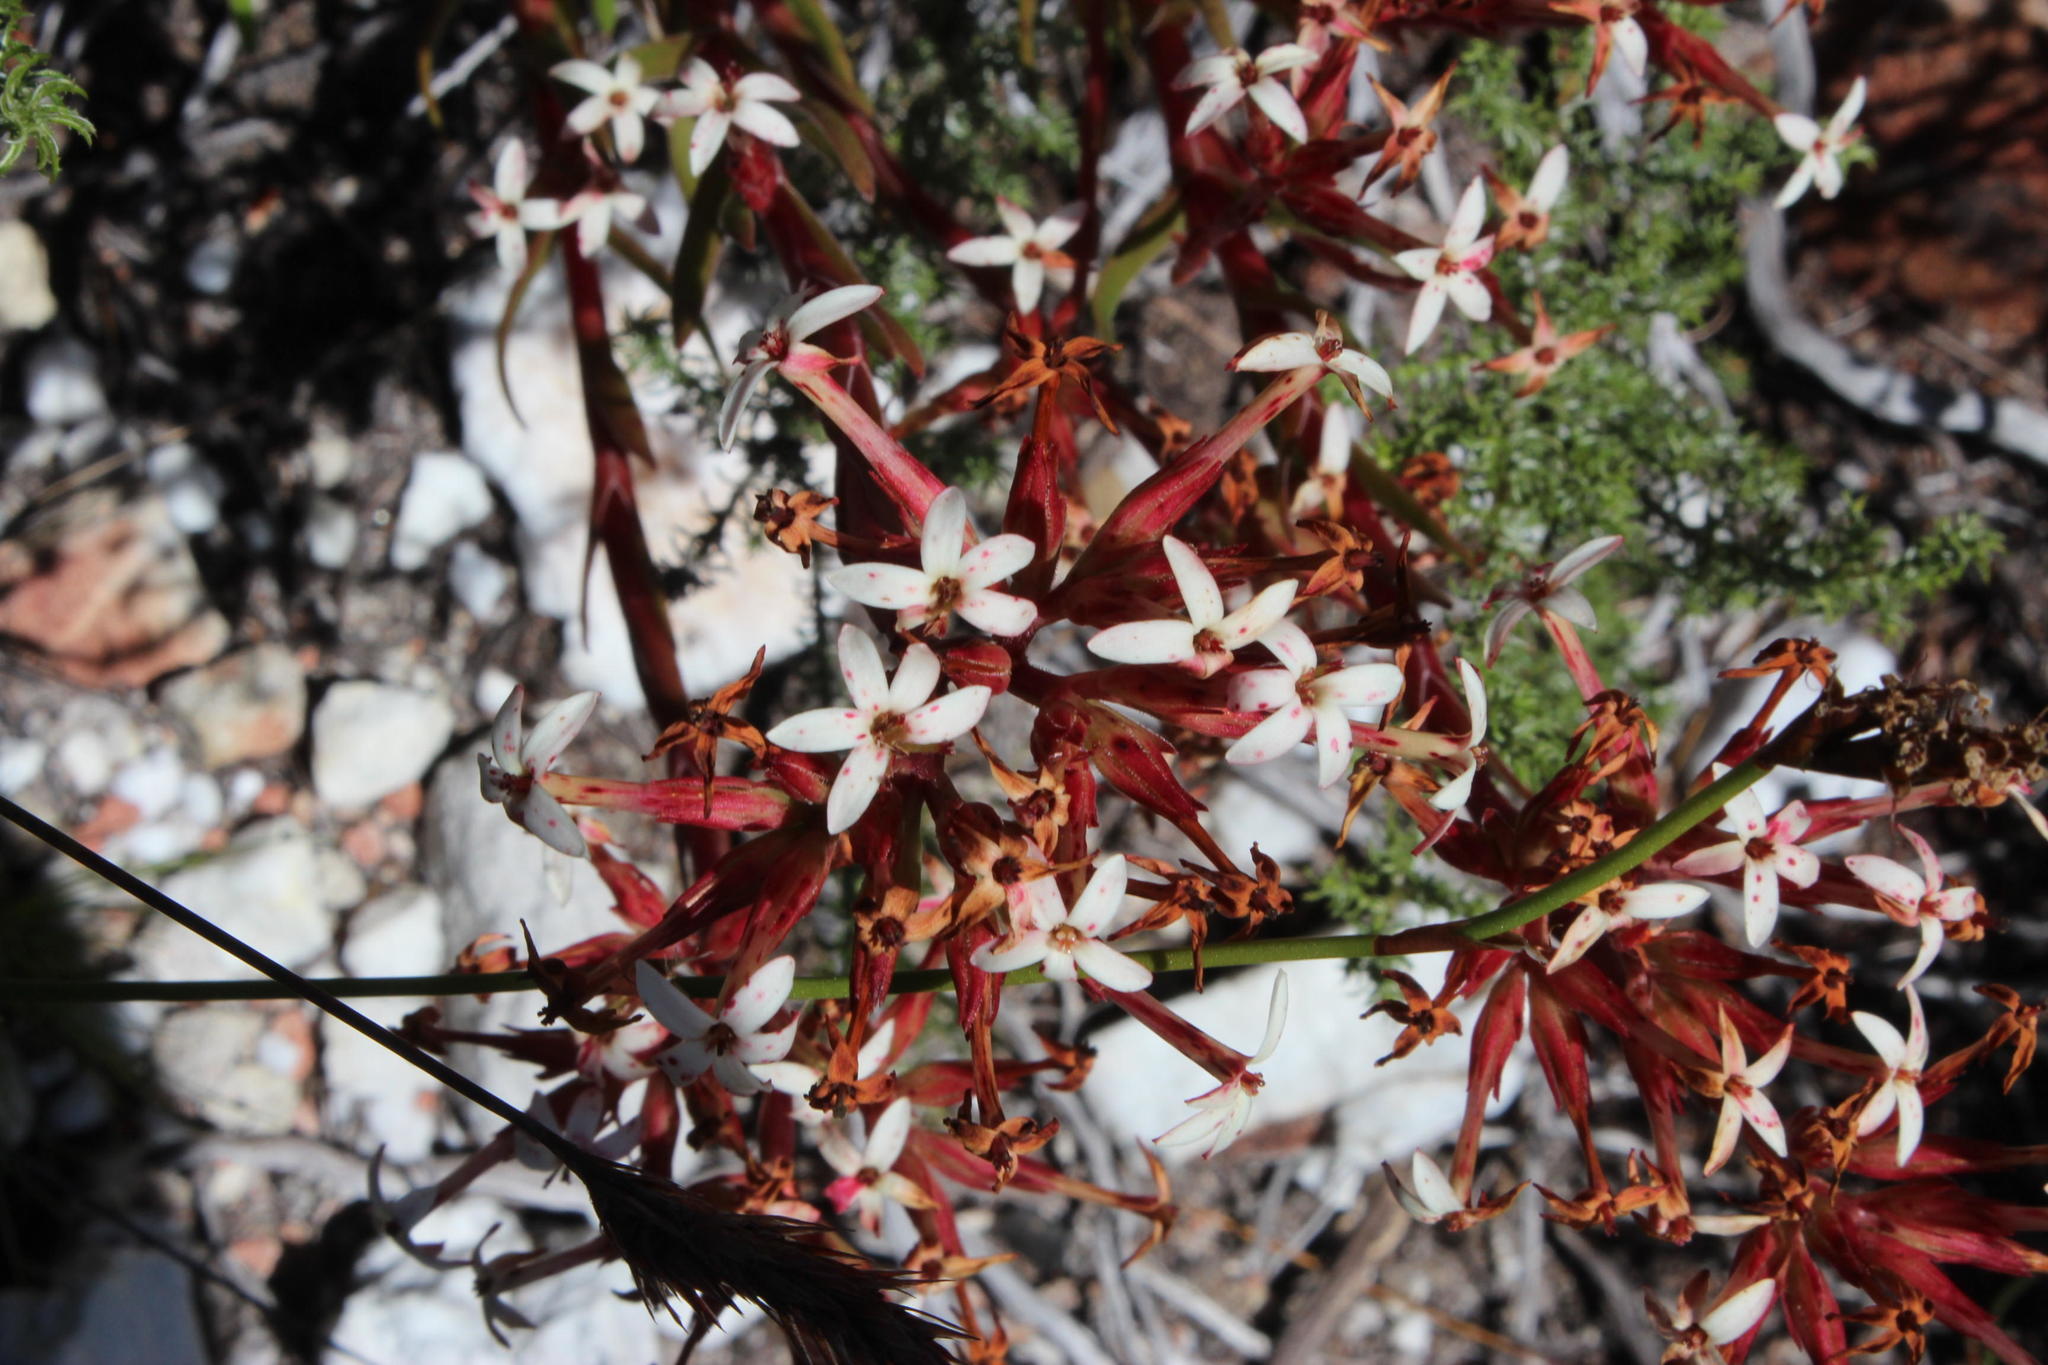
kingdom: Plantae
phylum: Tracheophyta
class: Magnoliopsida
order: Saxifragales
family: Crassulaceae
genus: Crassula
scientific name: Crassula fascicularis
